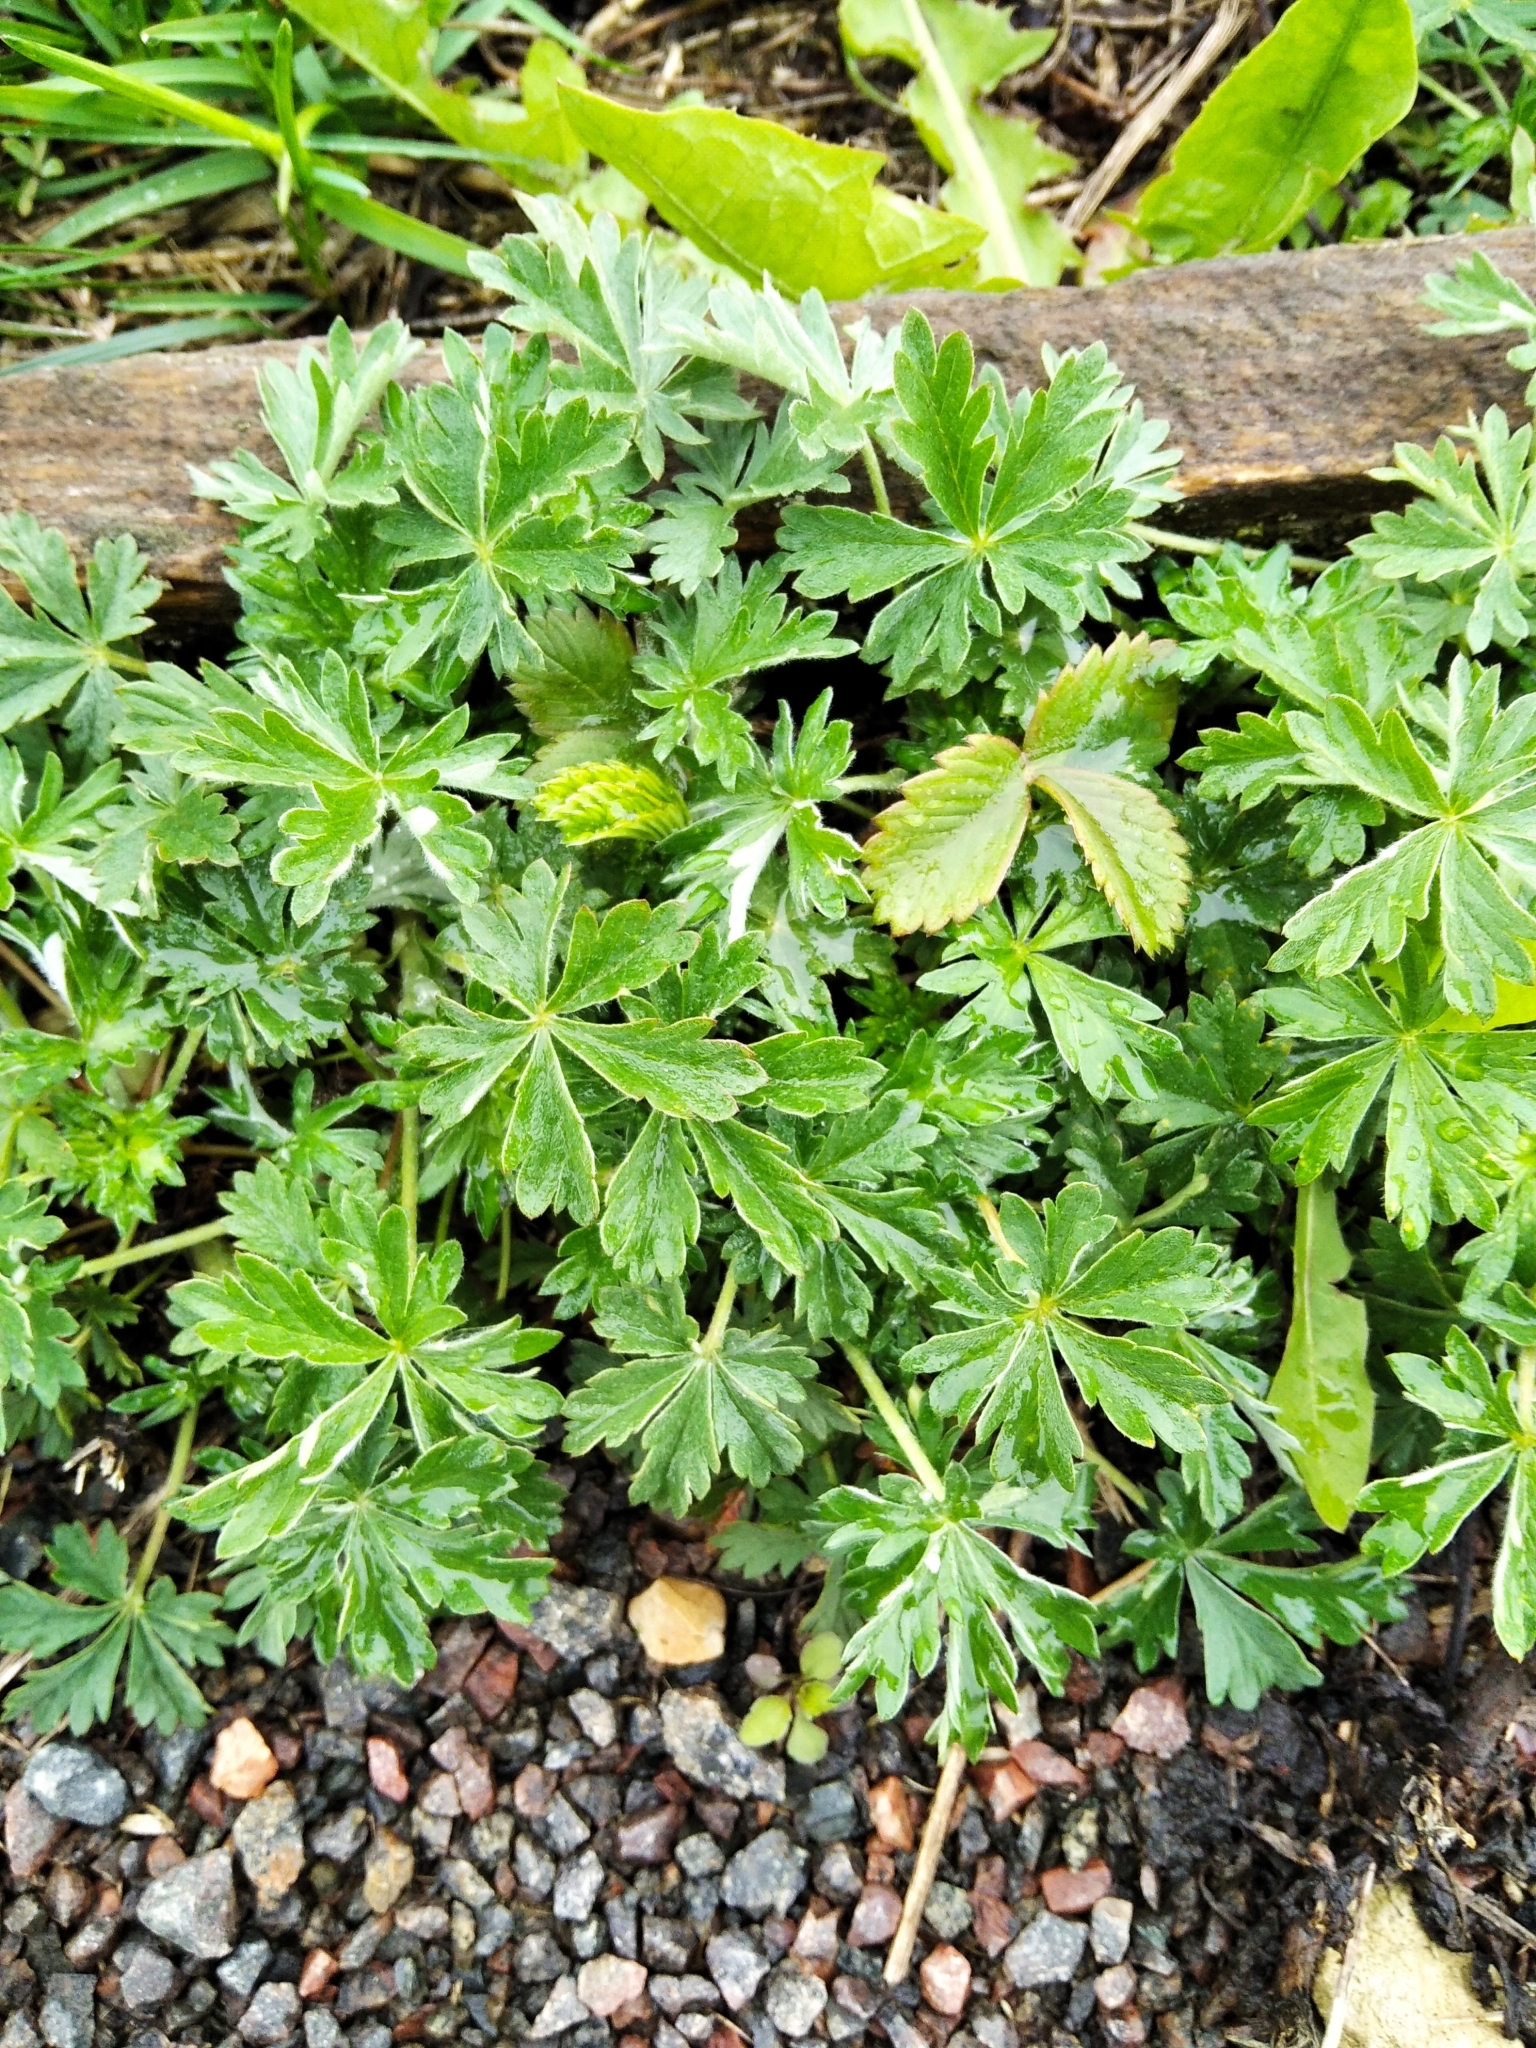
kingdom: Plantae
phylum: Tracheophyta
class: Magnoliopsida
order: Rosales
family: Rosaceae
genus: Potentilla
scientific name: Potentilla argentea
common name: Hoary cinquefoil
